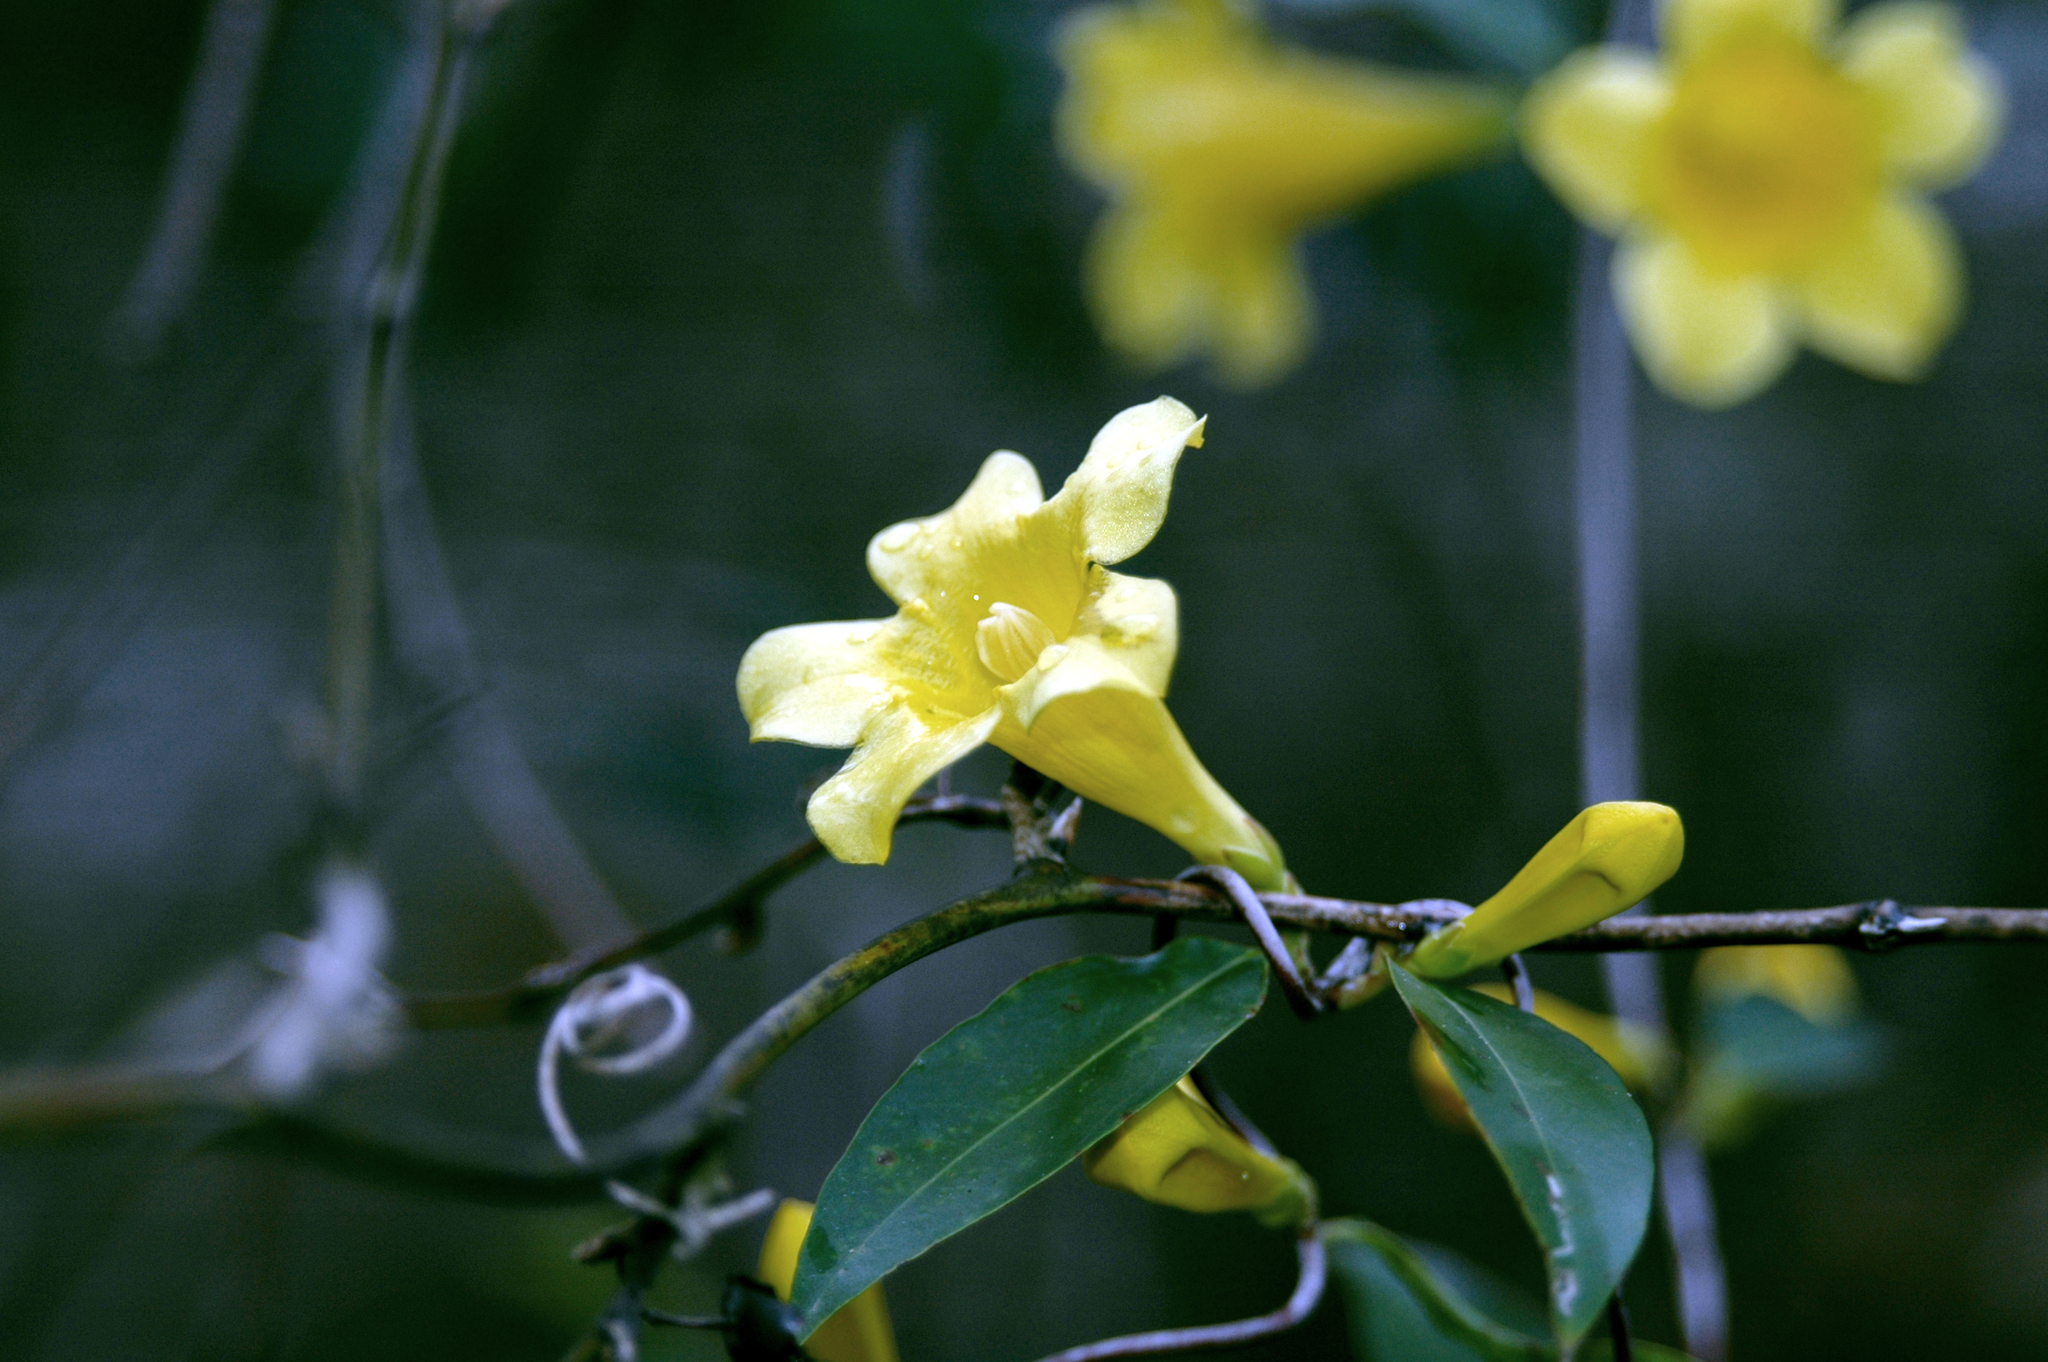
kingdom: Plantae
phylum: Tracheophyta
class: Magnoliopsida
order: Gentianales
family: Gelsemiaceae
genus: Gelsemium
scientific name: Gelsemium sempervirens
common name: Carolina-jasmine
